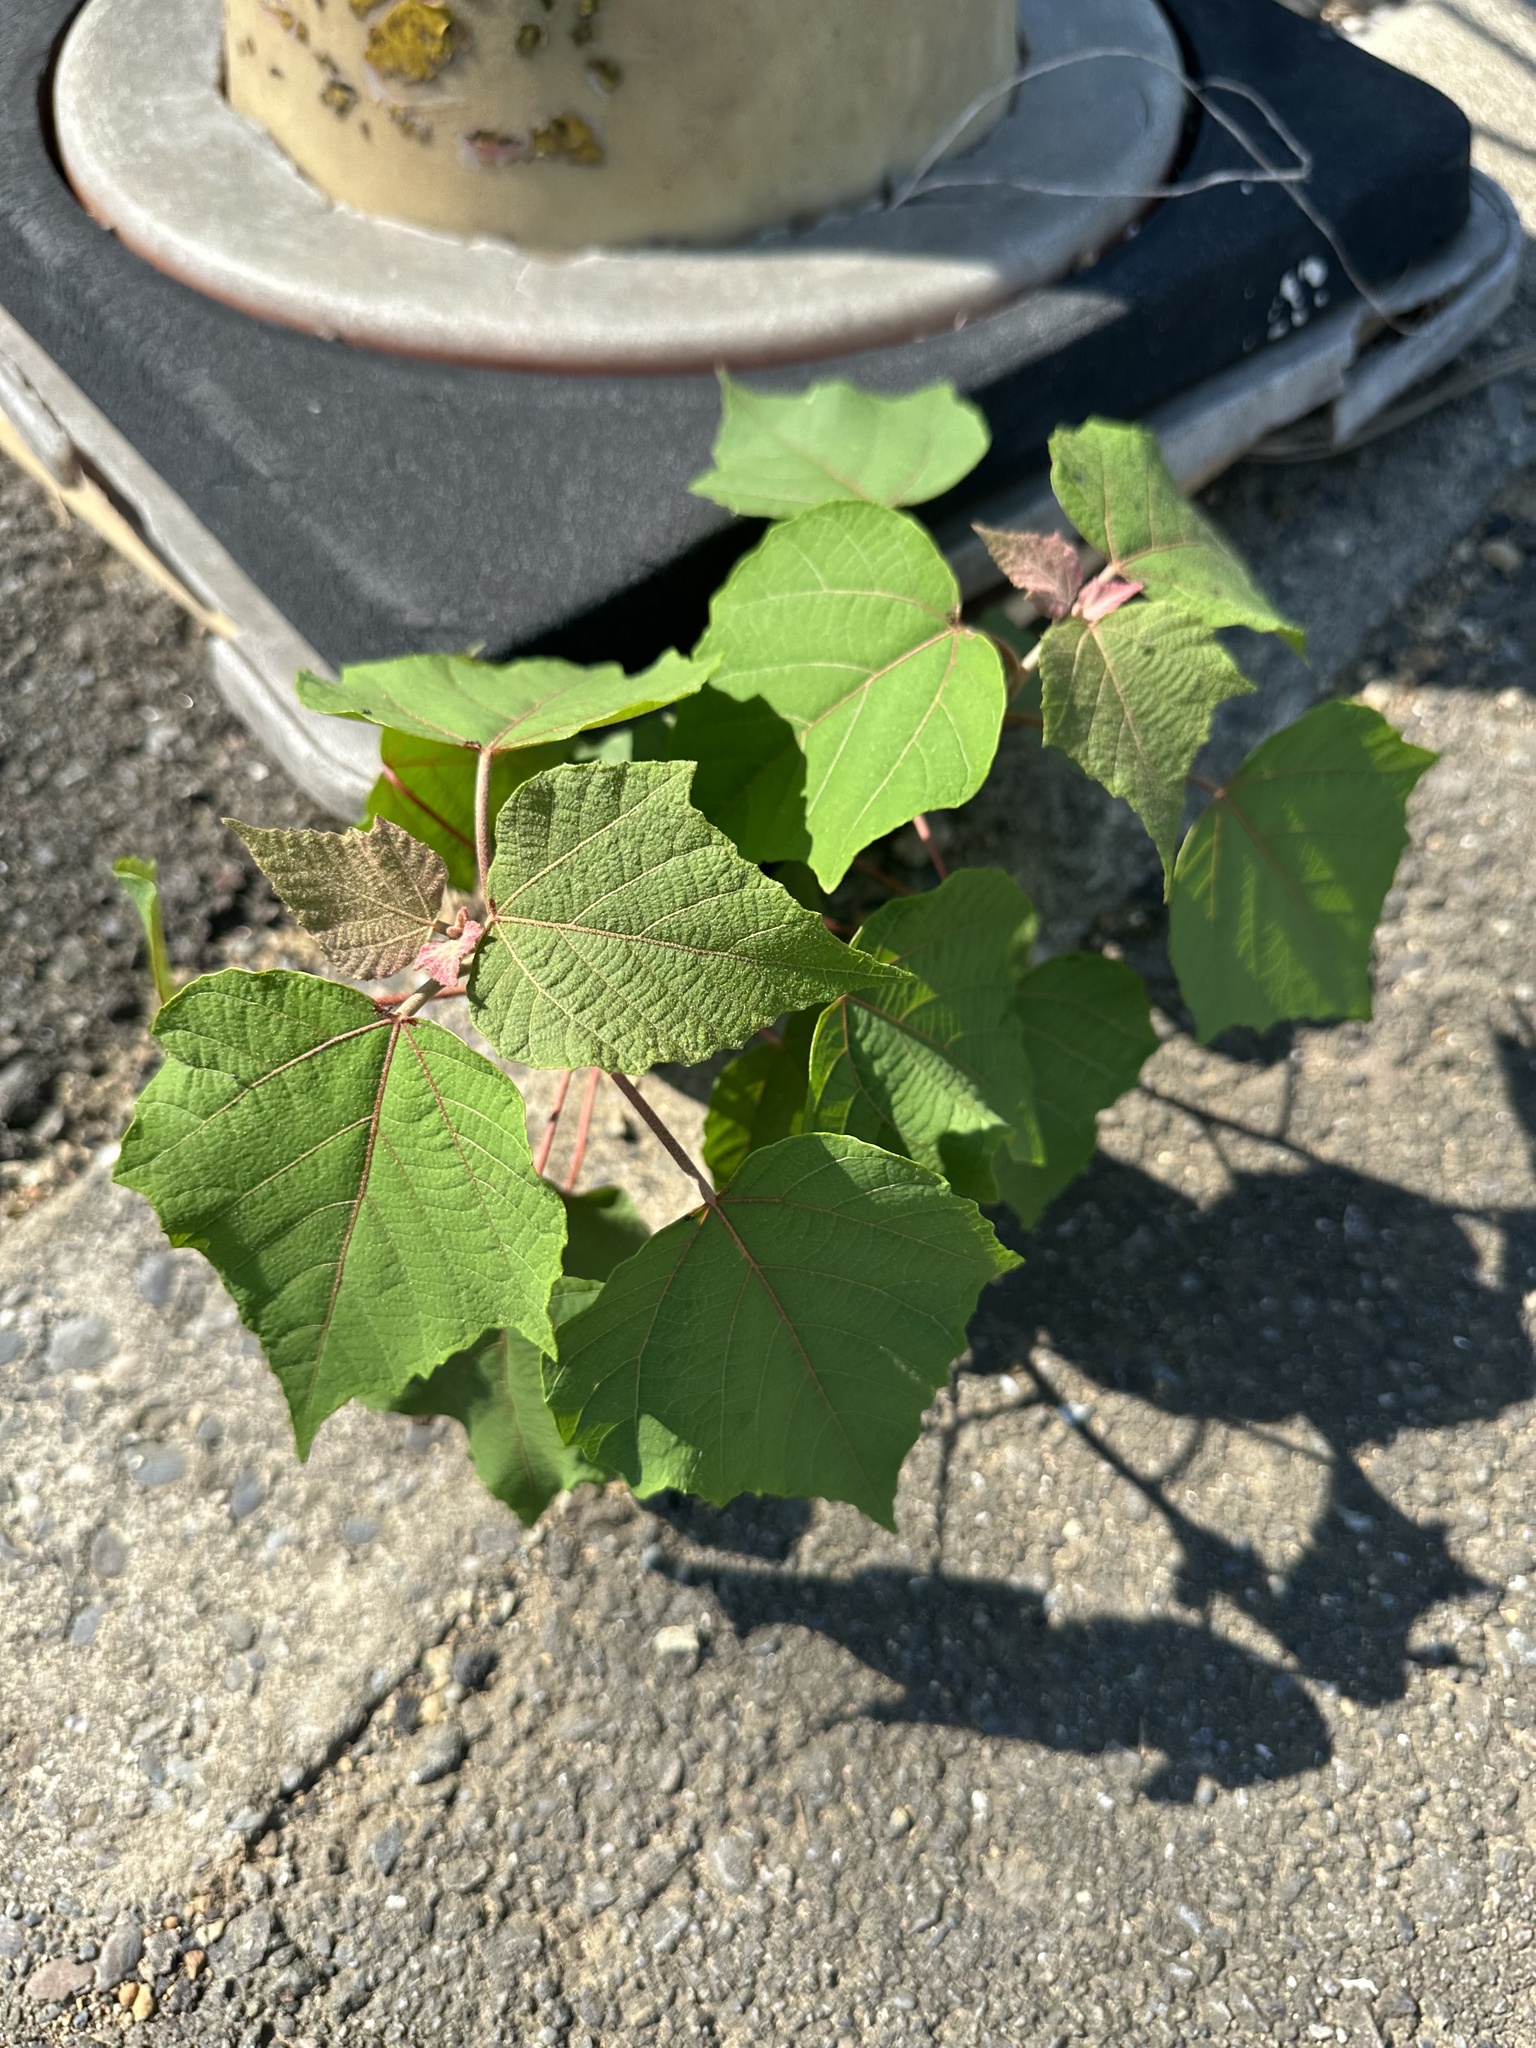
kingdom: Plantae
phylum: Tracheophyta
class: Magnoliopsida
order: Malpighiales
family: Euphorbiaceae
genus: Mallotus
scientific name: Mallotus japonicus
